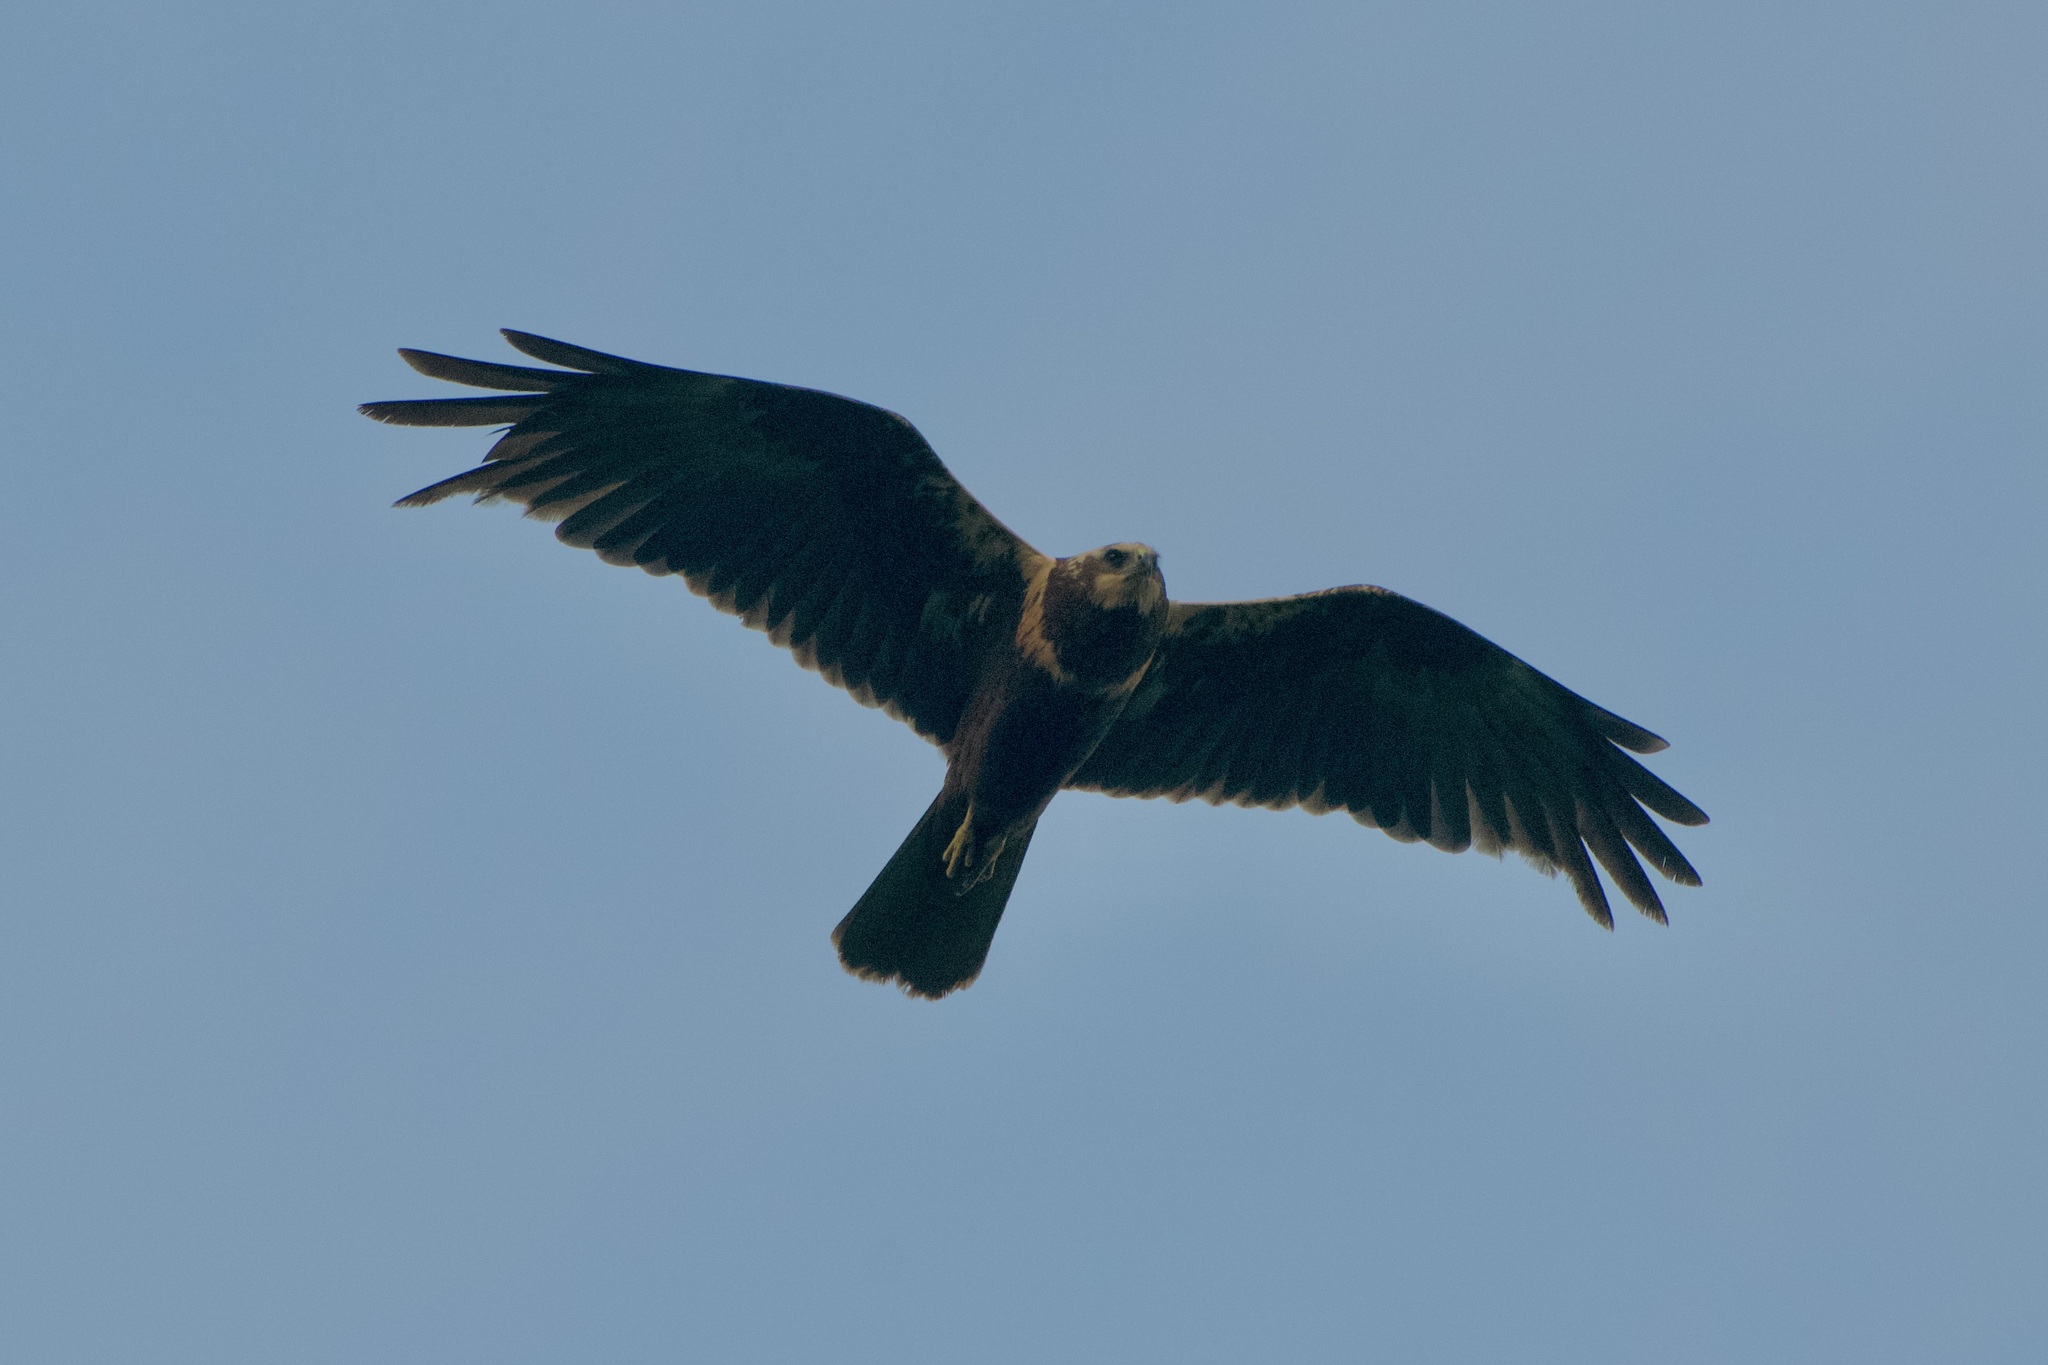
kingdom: Animalia
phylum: Chordata
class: Aves
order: Accipitriformes
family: Accipitridae
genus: Circus
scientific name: Circus aeruginosus
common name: Western marsh harrier
